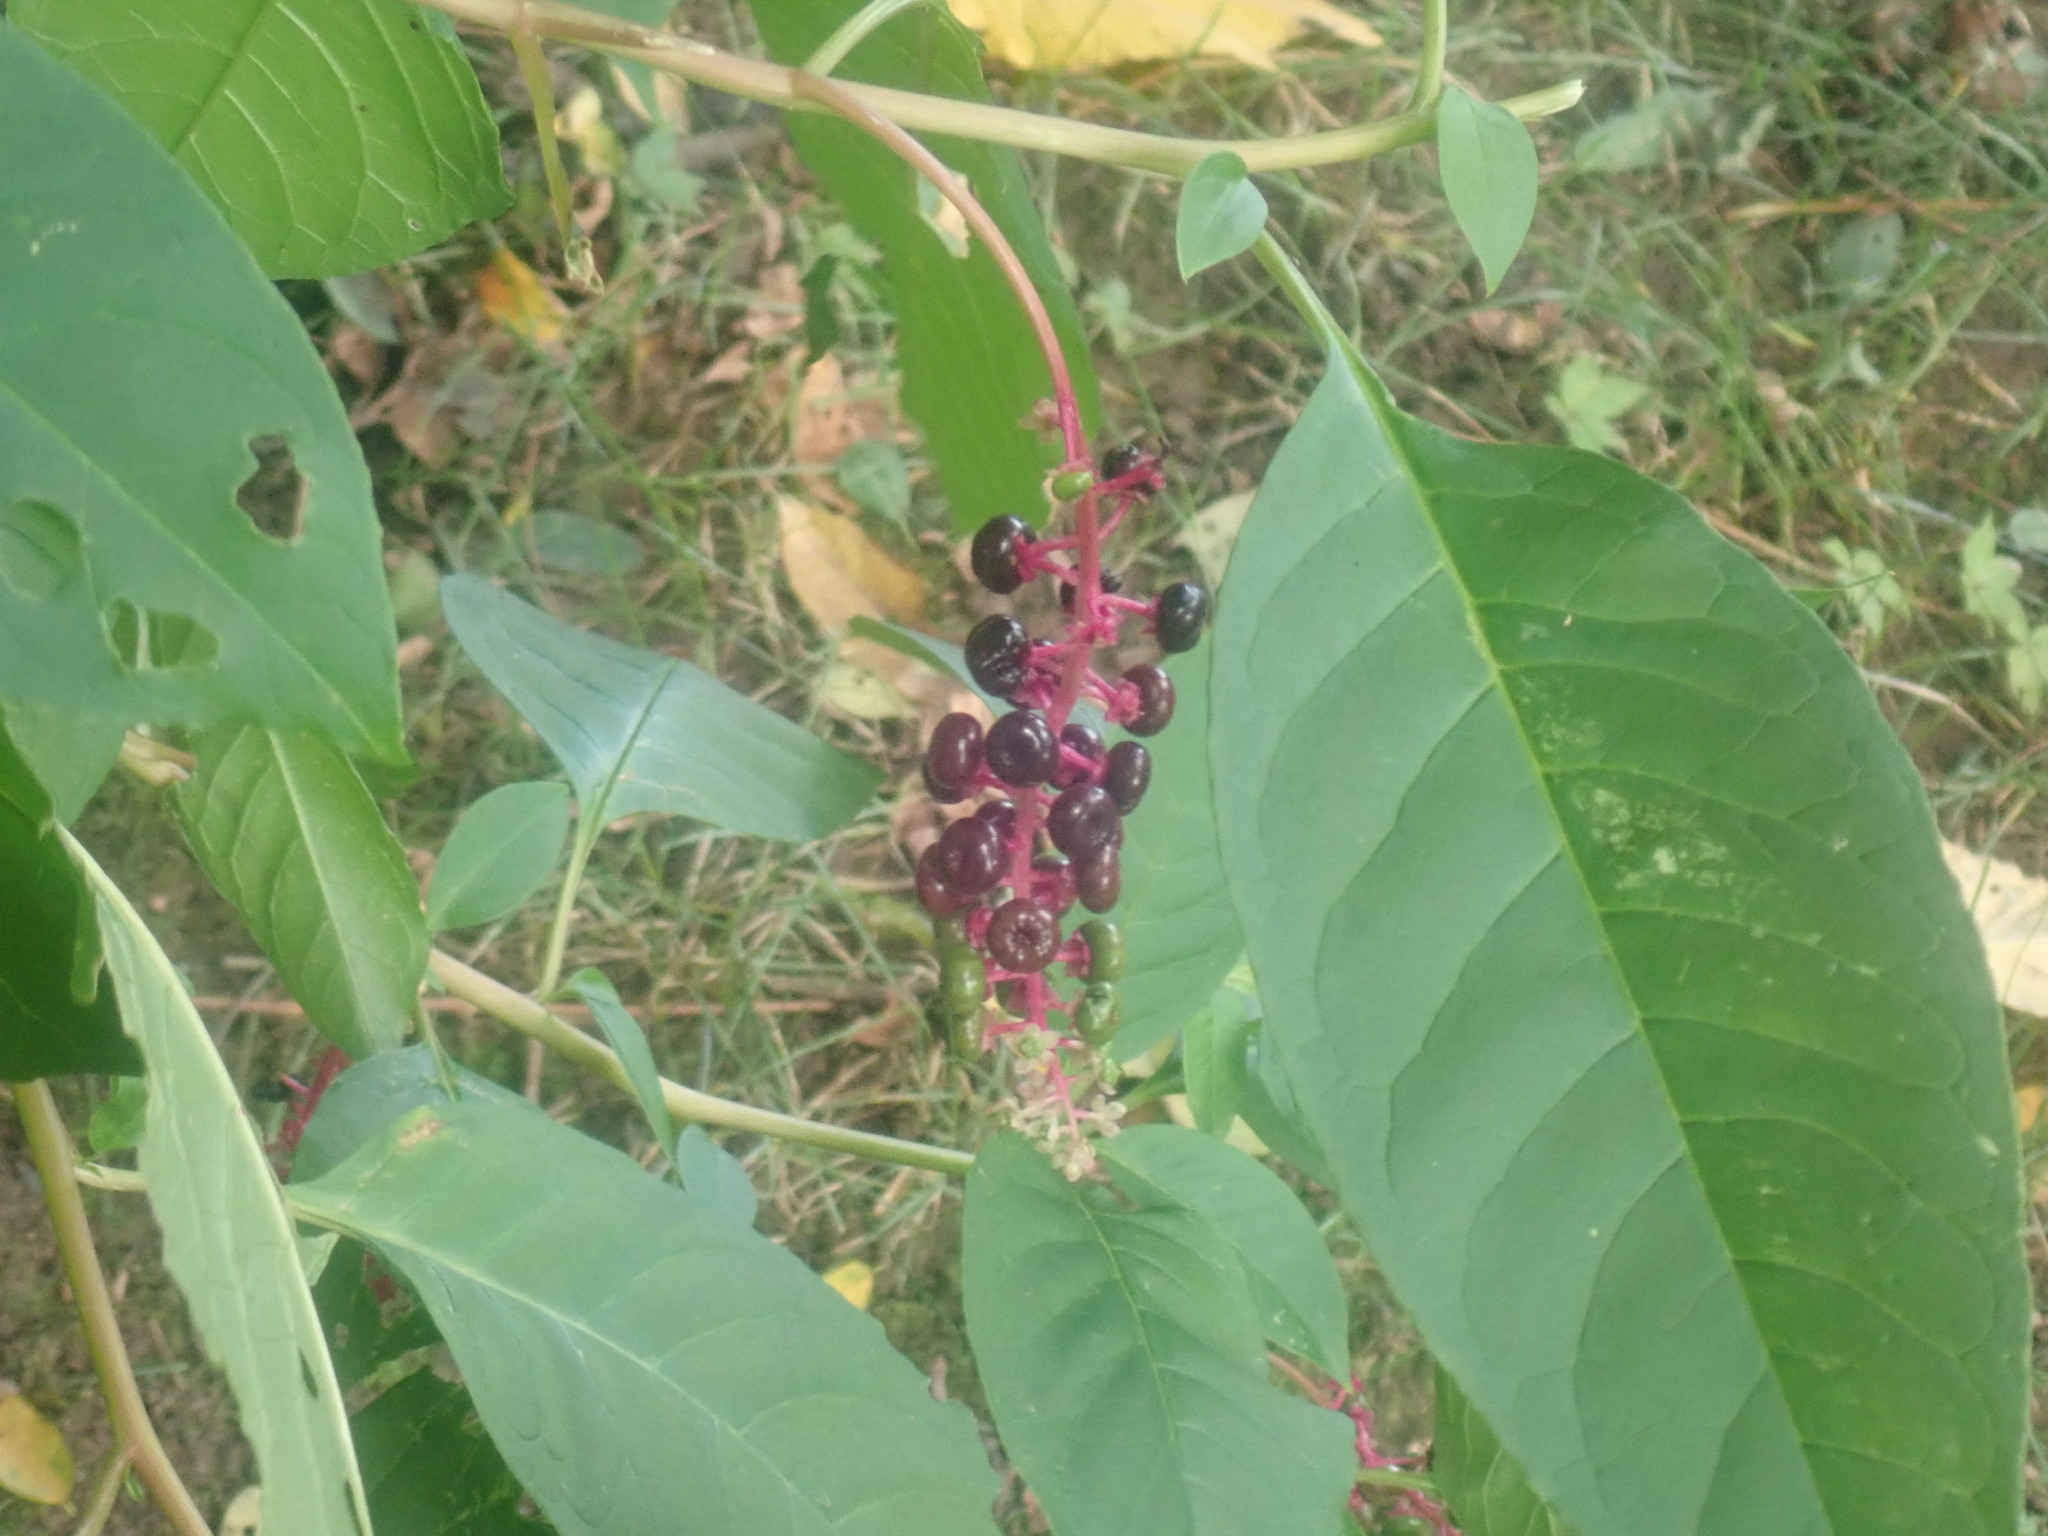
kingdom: Plantae
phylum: Tracheophyta
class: Magnoliopsida
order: Caryophyllales
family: Phytolaccaceae
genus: Phytolacca
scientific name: Phytolacca americana
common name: American pokeweed
